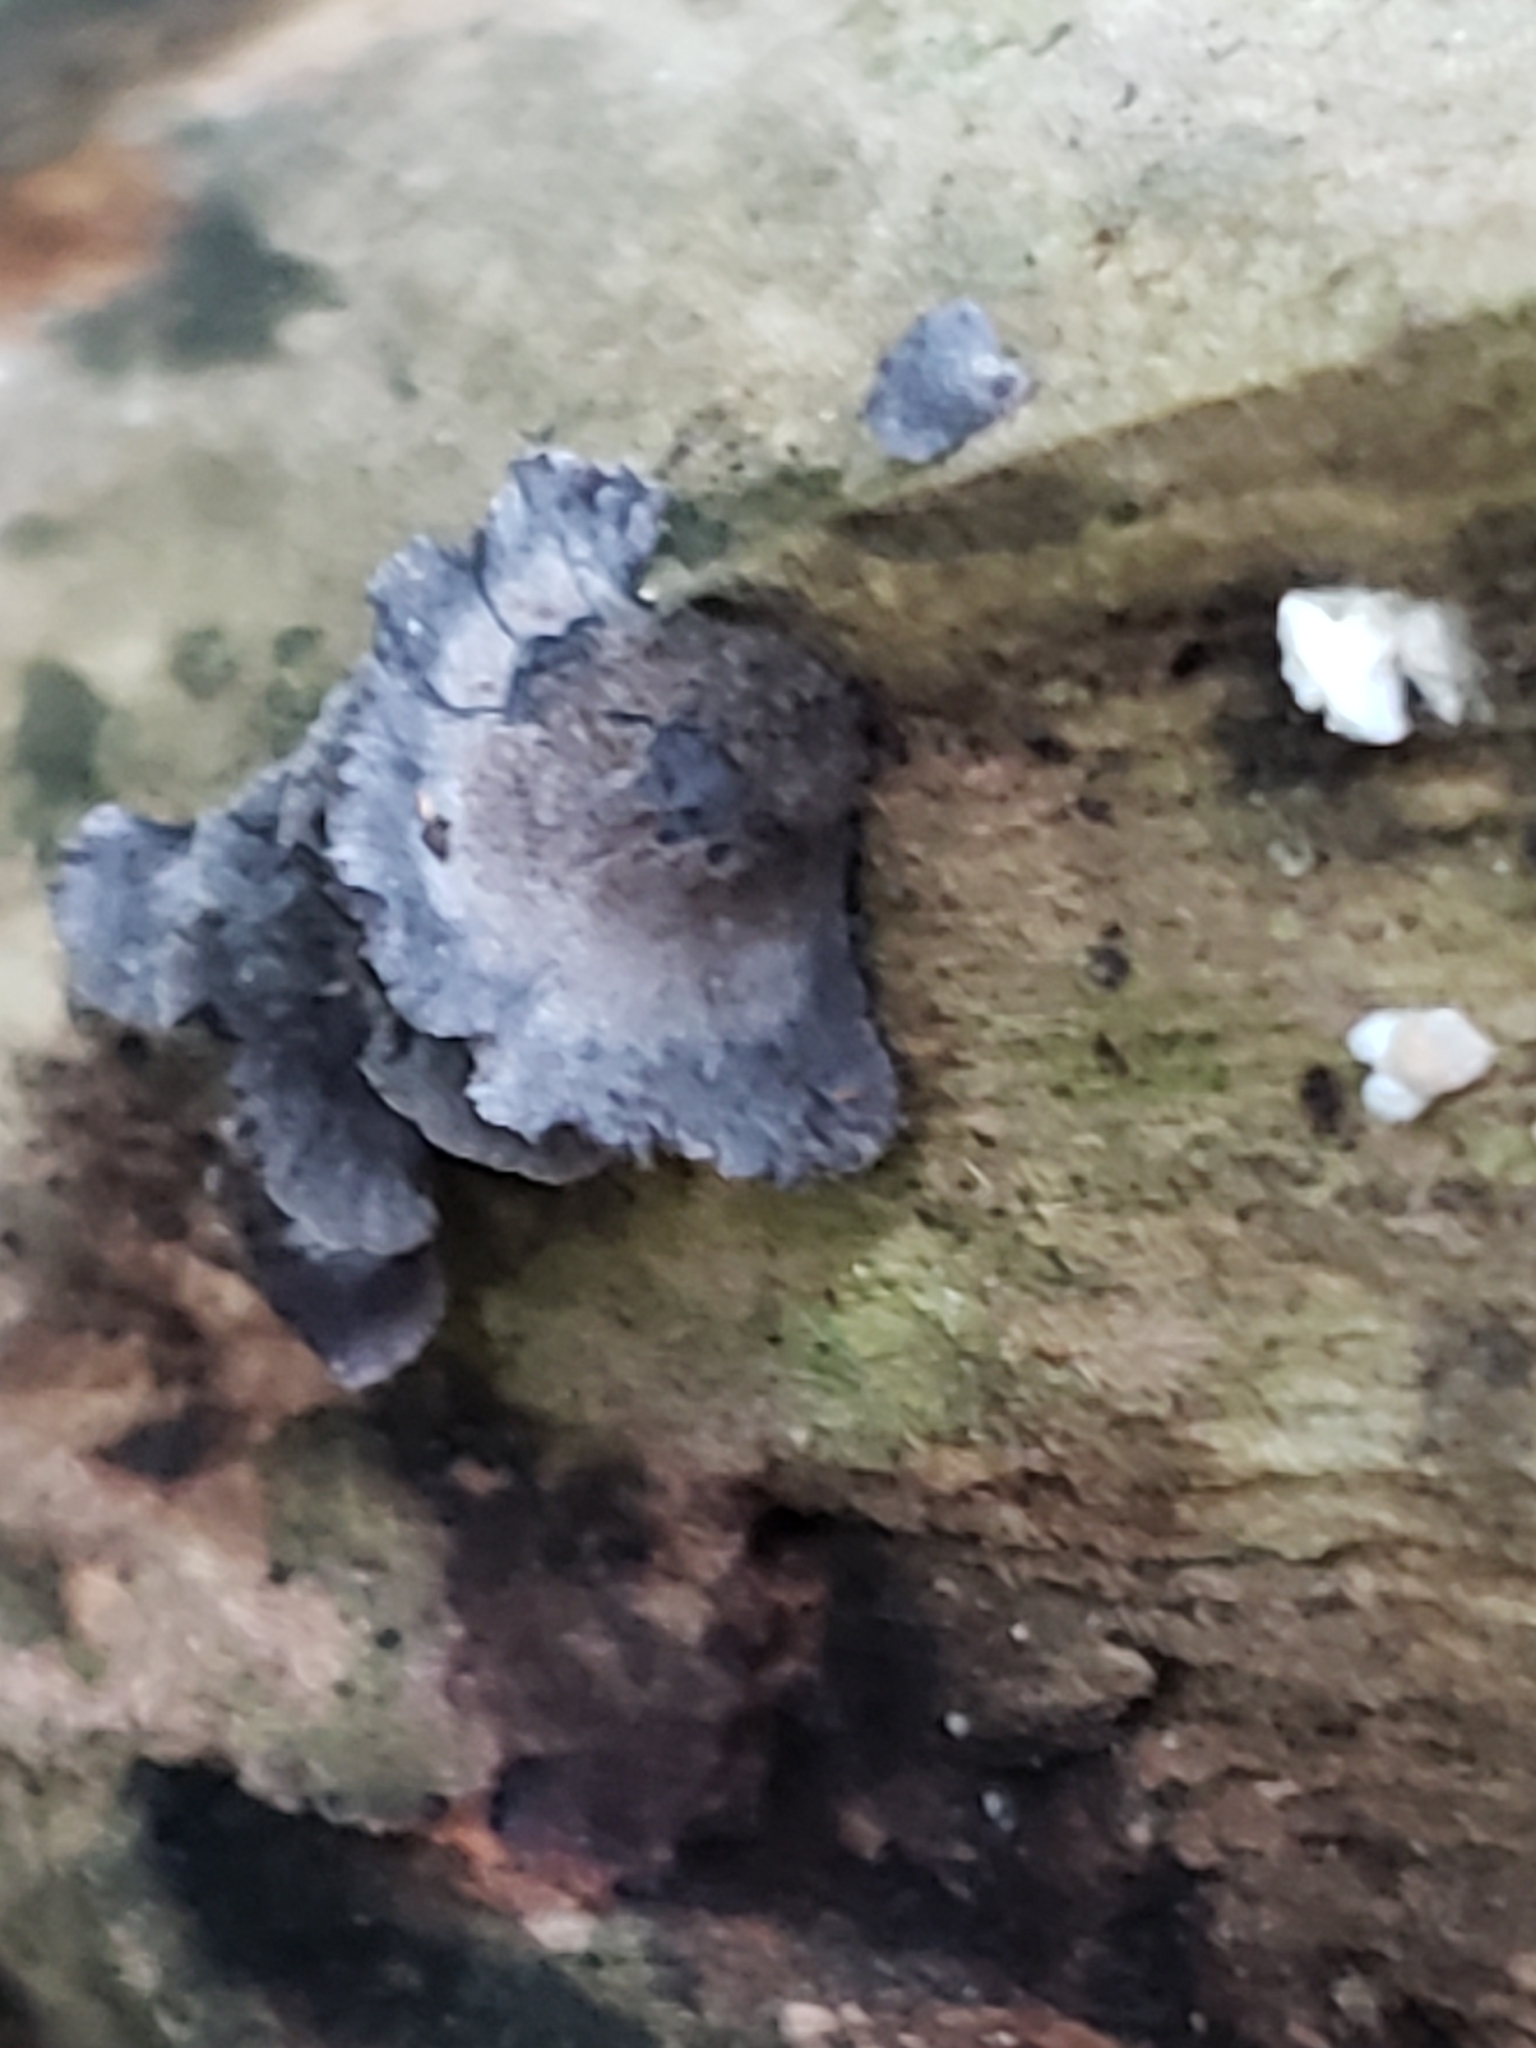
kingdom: Fungi
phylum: Basidiomycota
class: Agaricomycetes
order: Agaricales
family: Pleurotaceae
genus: Resupinatus
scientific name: Resupinatus applicatus
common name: Smoked oysterling
